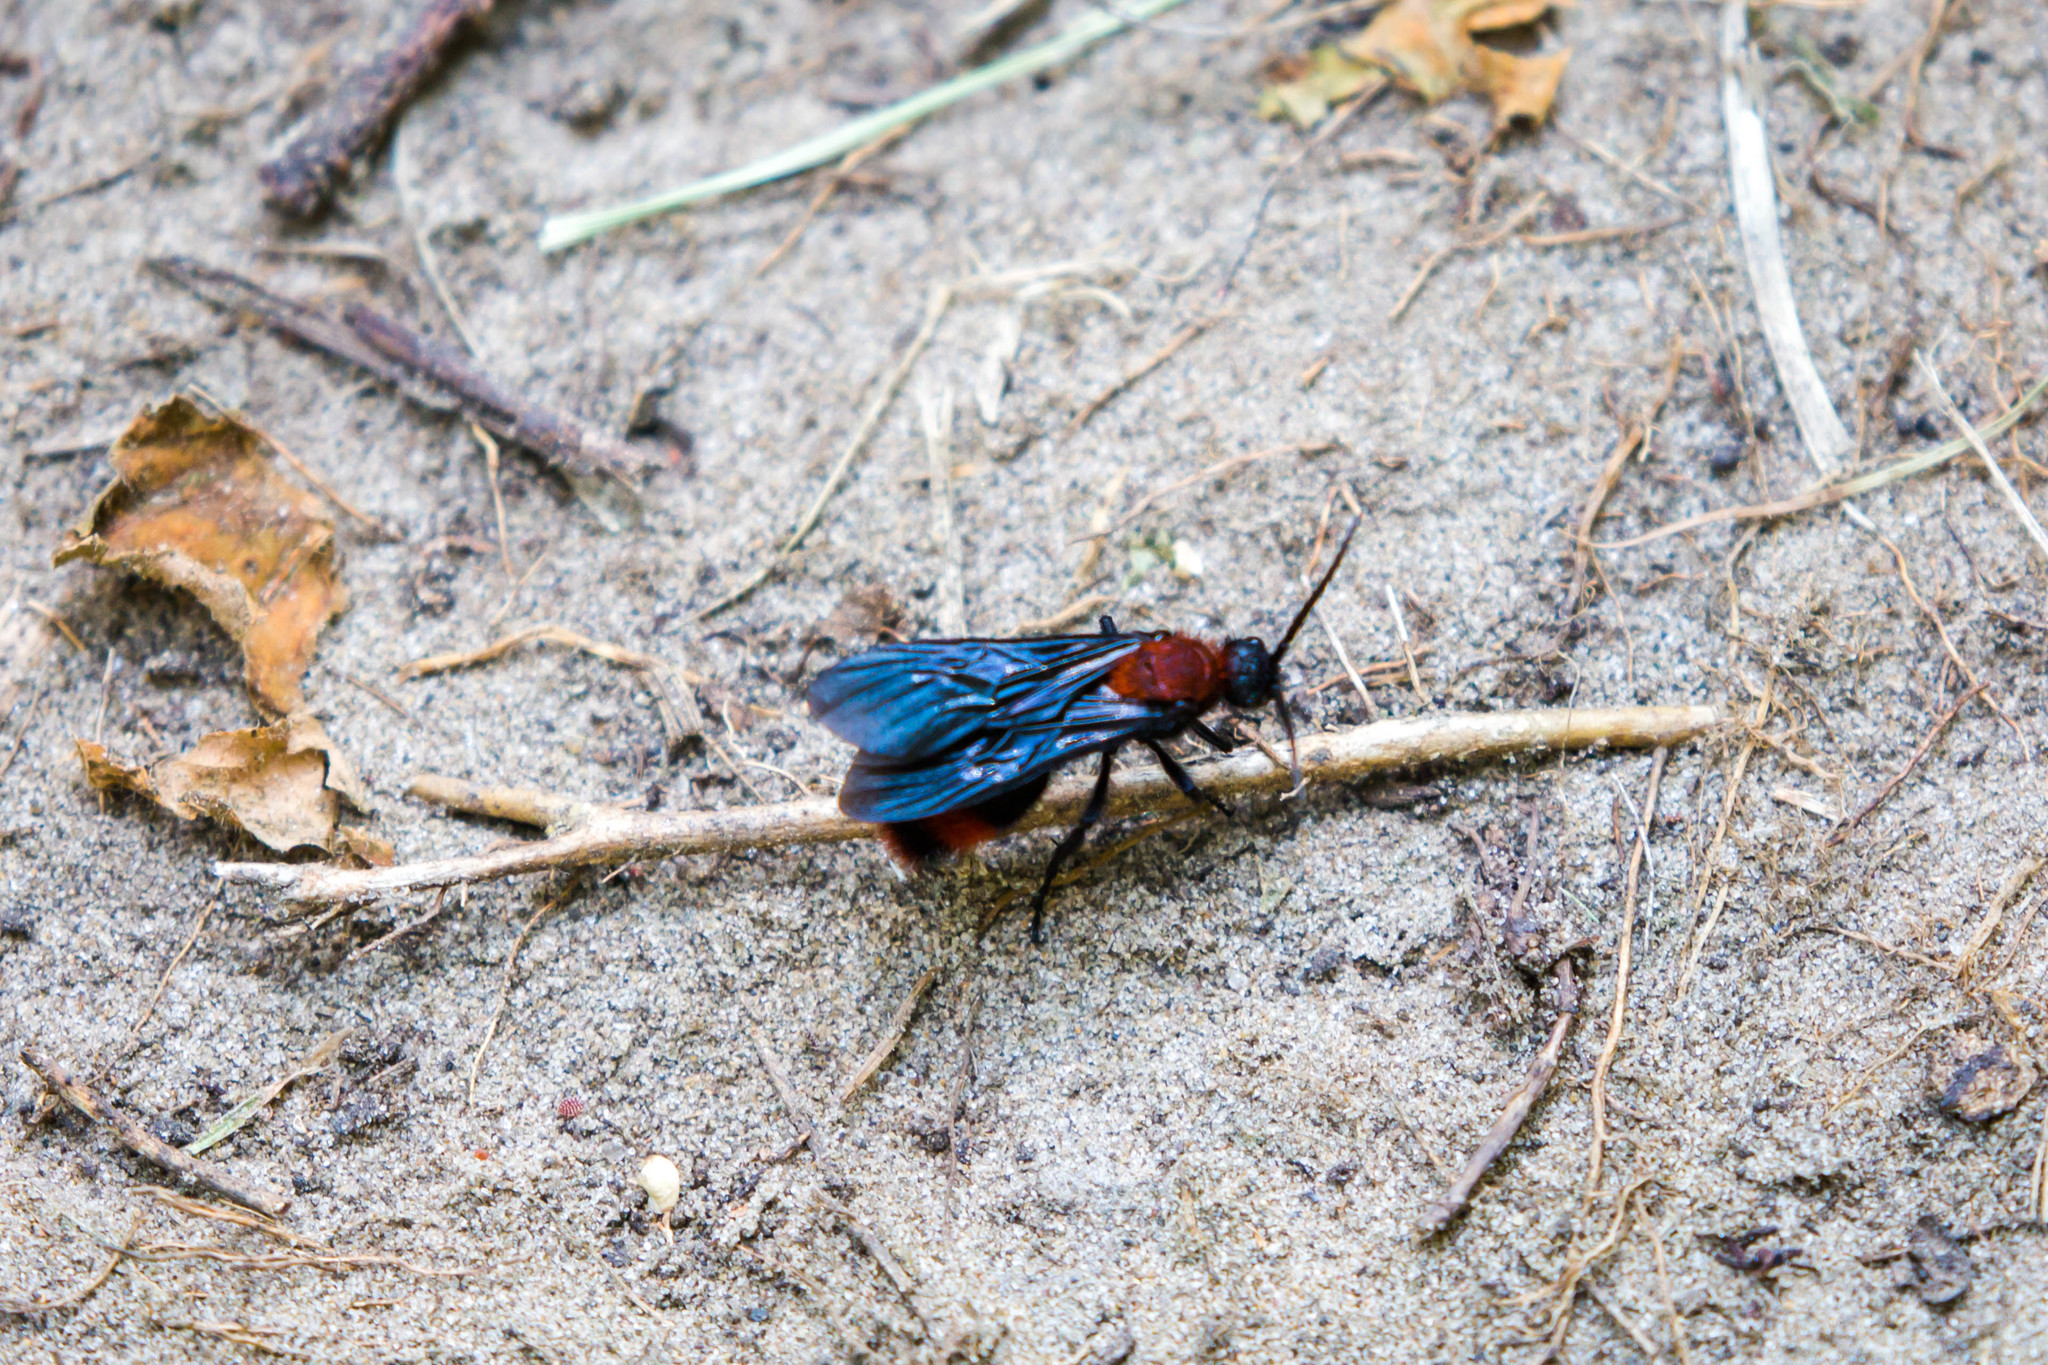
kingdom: Animalia
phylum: Arthropoda
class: Insecta
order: Hymenoptera
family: Mutillidae
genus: Dasymutilla
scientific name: Dasymutilla occidentalis
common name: Common eastern velvet ant
